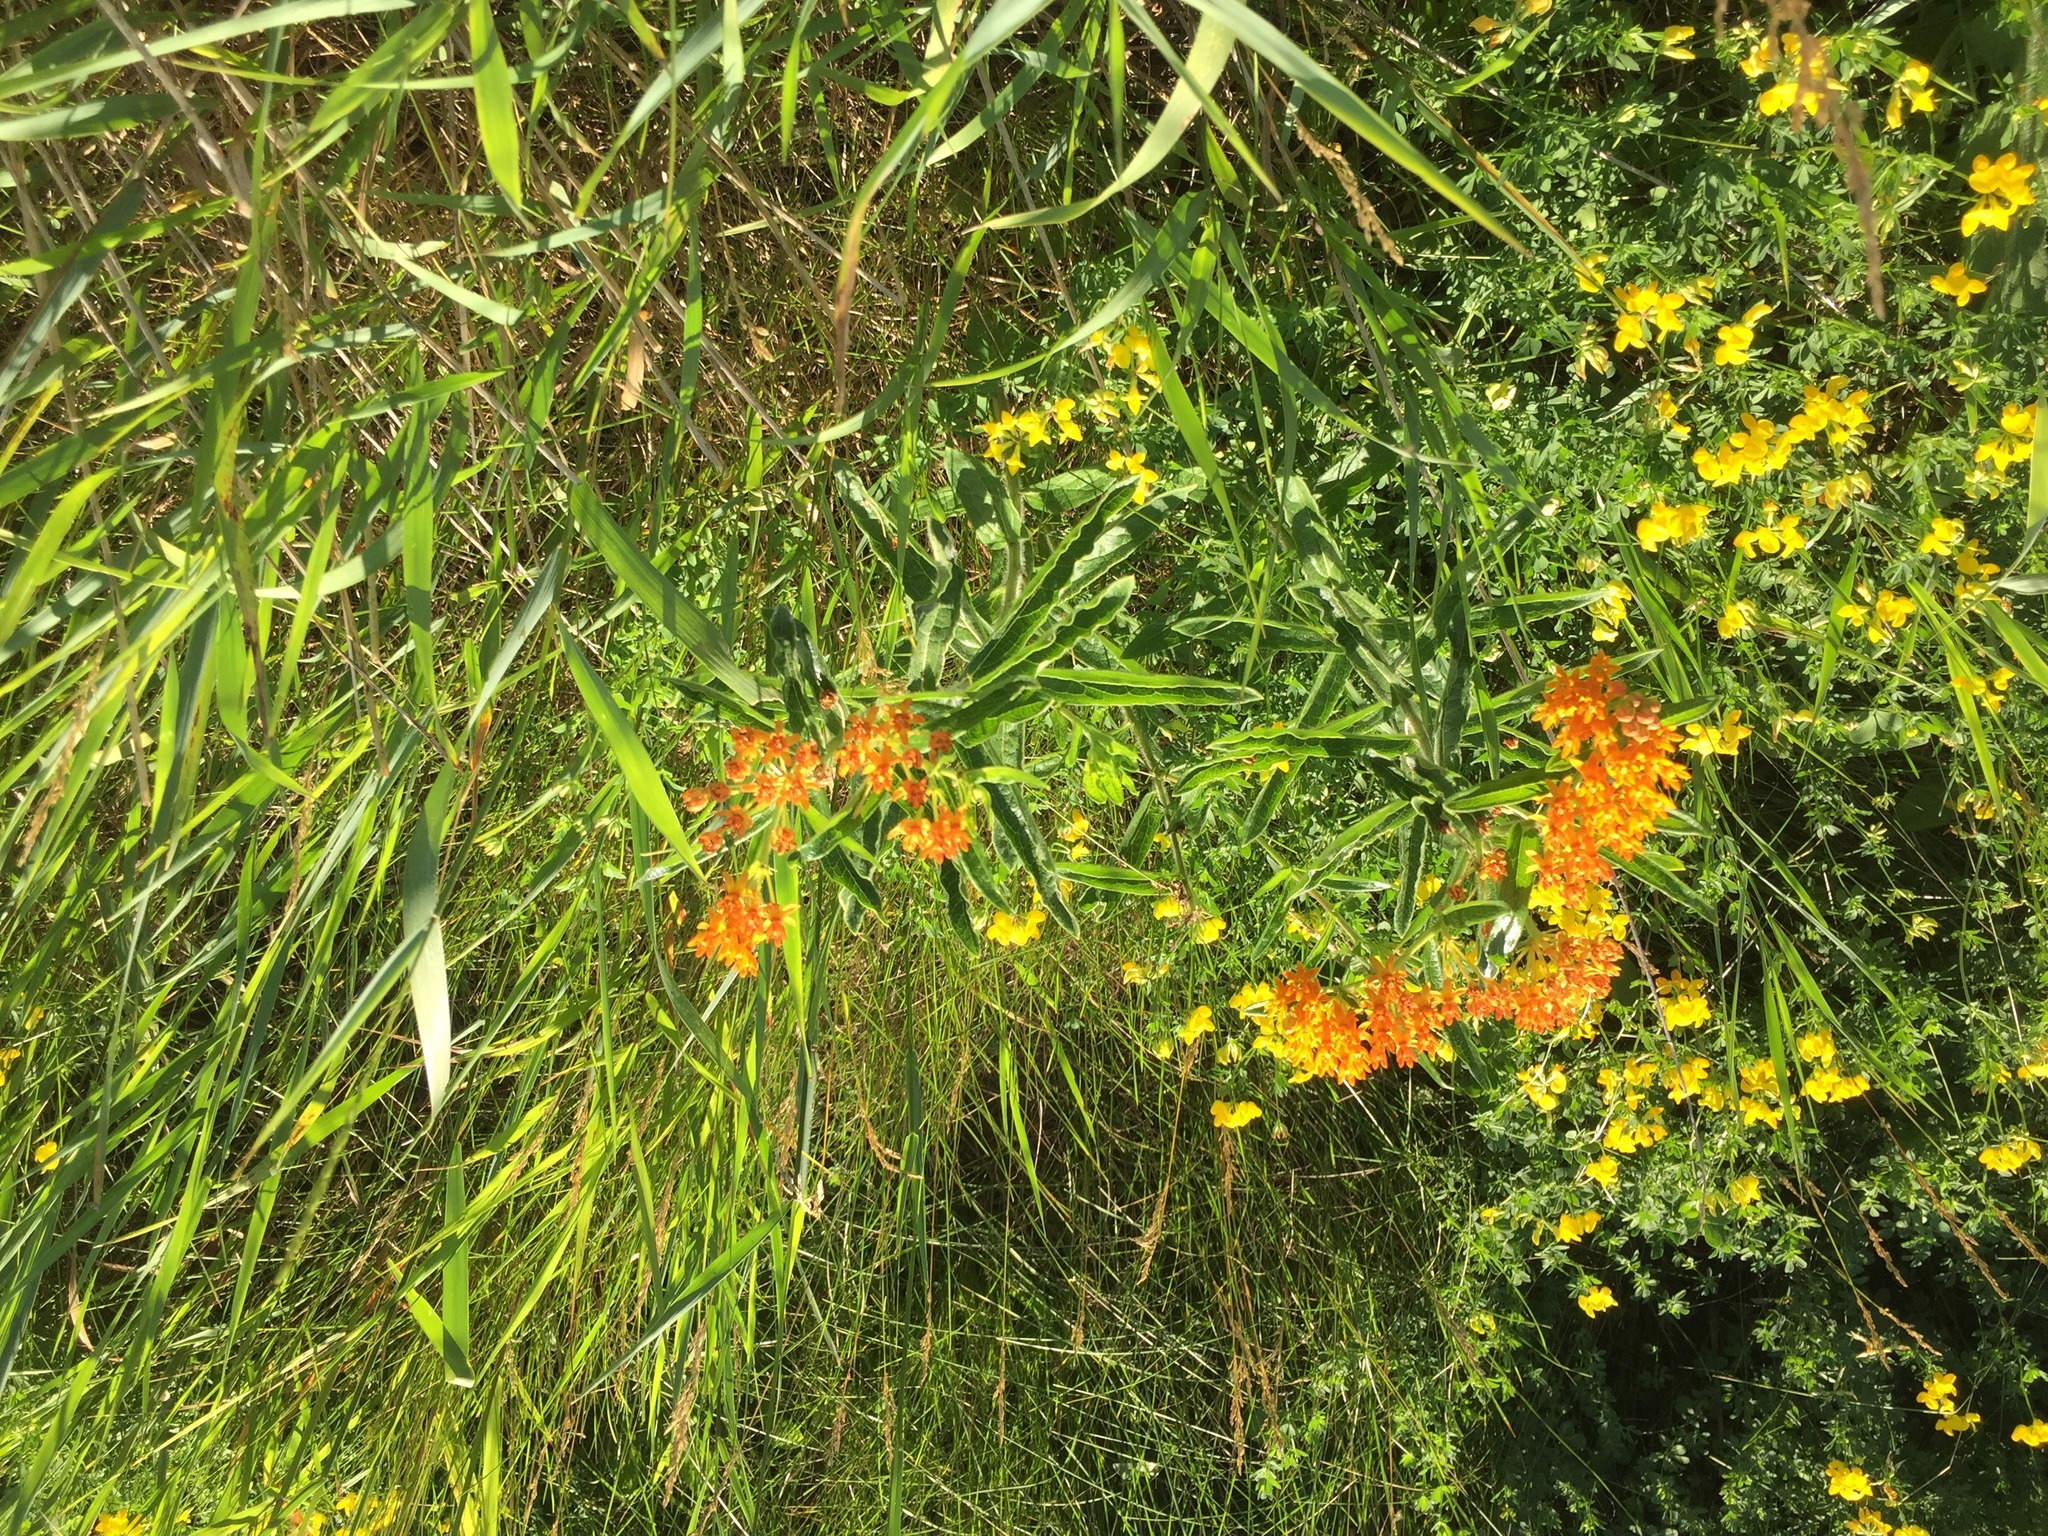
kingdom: Plantae
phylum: Tracheophyta
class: Magnoliopsida
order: Gentianales
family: Apocynaceae
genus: Asclepias
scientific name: Asclepias tuberosa
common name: Butterfly milkweed
